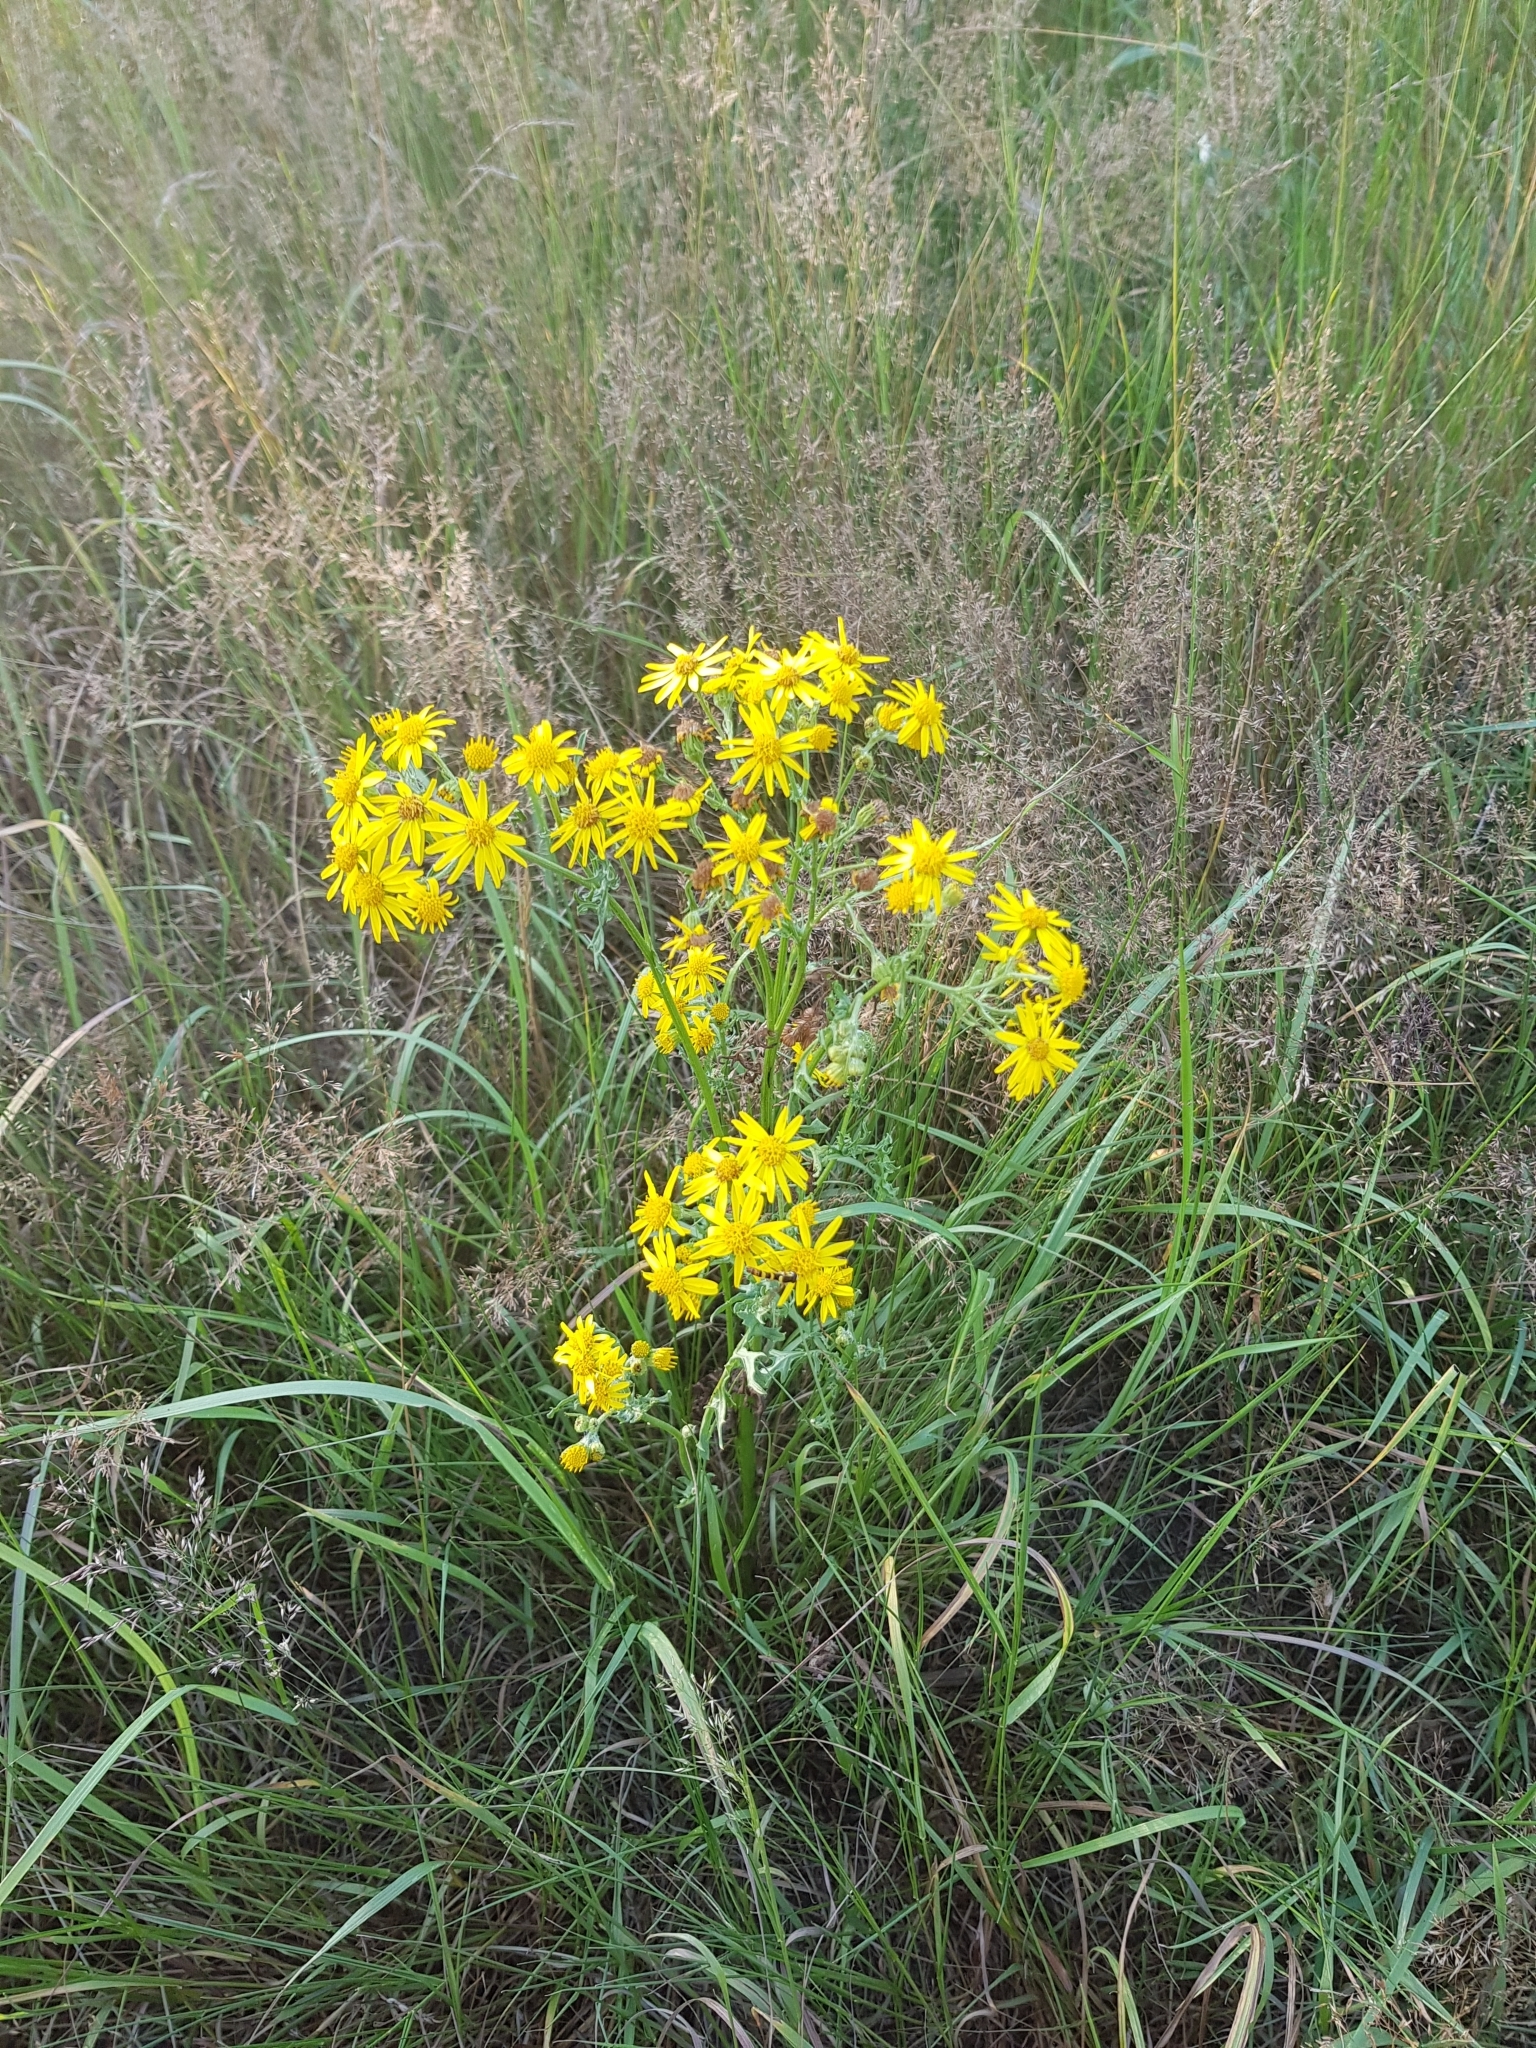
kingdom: Plantae
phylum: Tracheophyta
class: Magnoliopsida
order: Asterales
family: Asteraceae
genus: Jacobaea
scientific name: Jacobaea vulgaris
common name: Stinking willie
